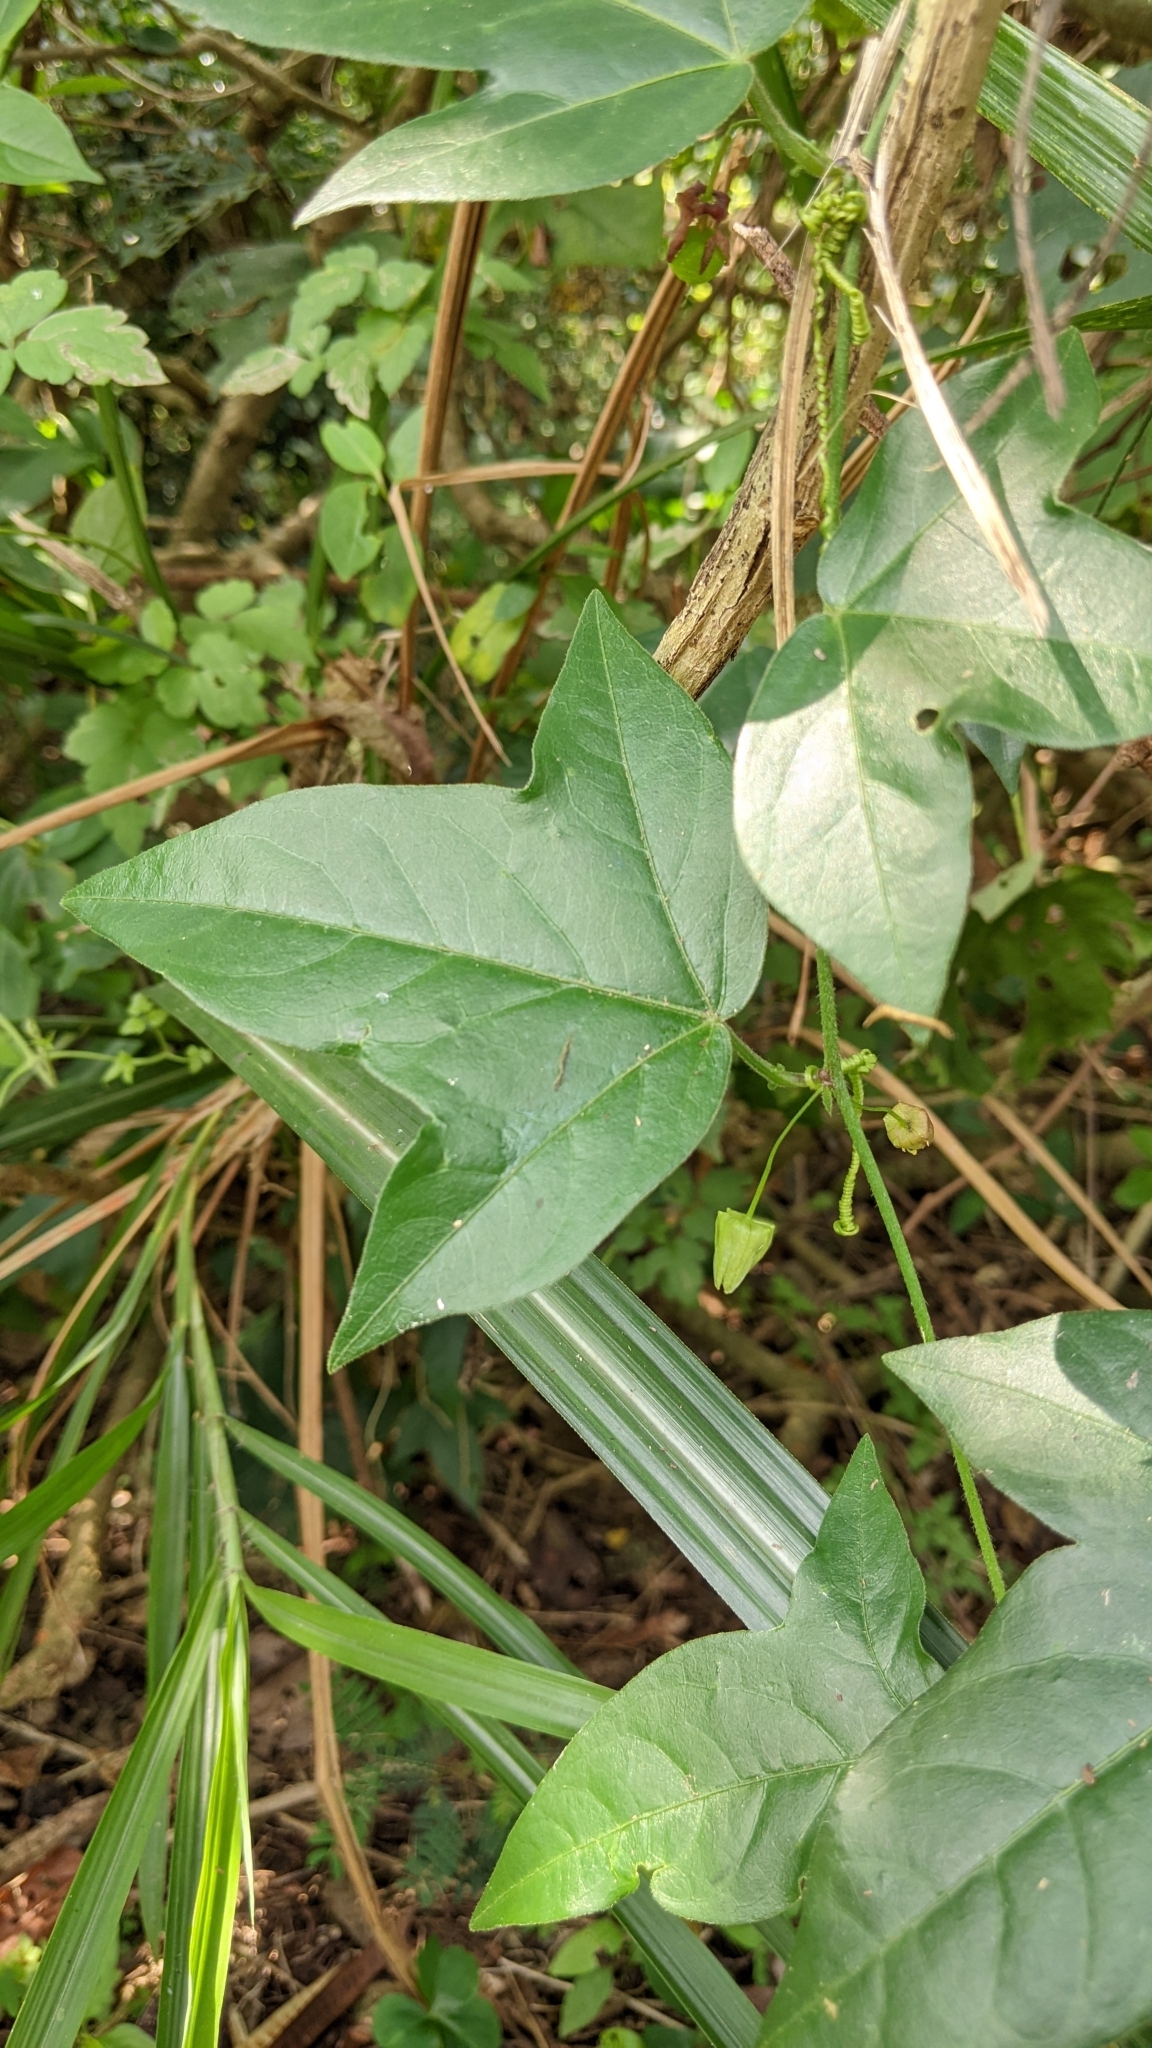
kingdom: Plantae
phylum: Tracheophyta
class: Magnoliopsida
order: Malpighiales
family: Passifloraceae
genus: Passiflora
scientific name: Passiflora suberosa
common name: Wild passionfruit
